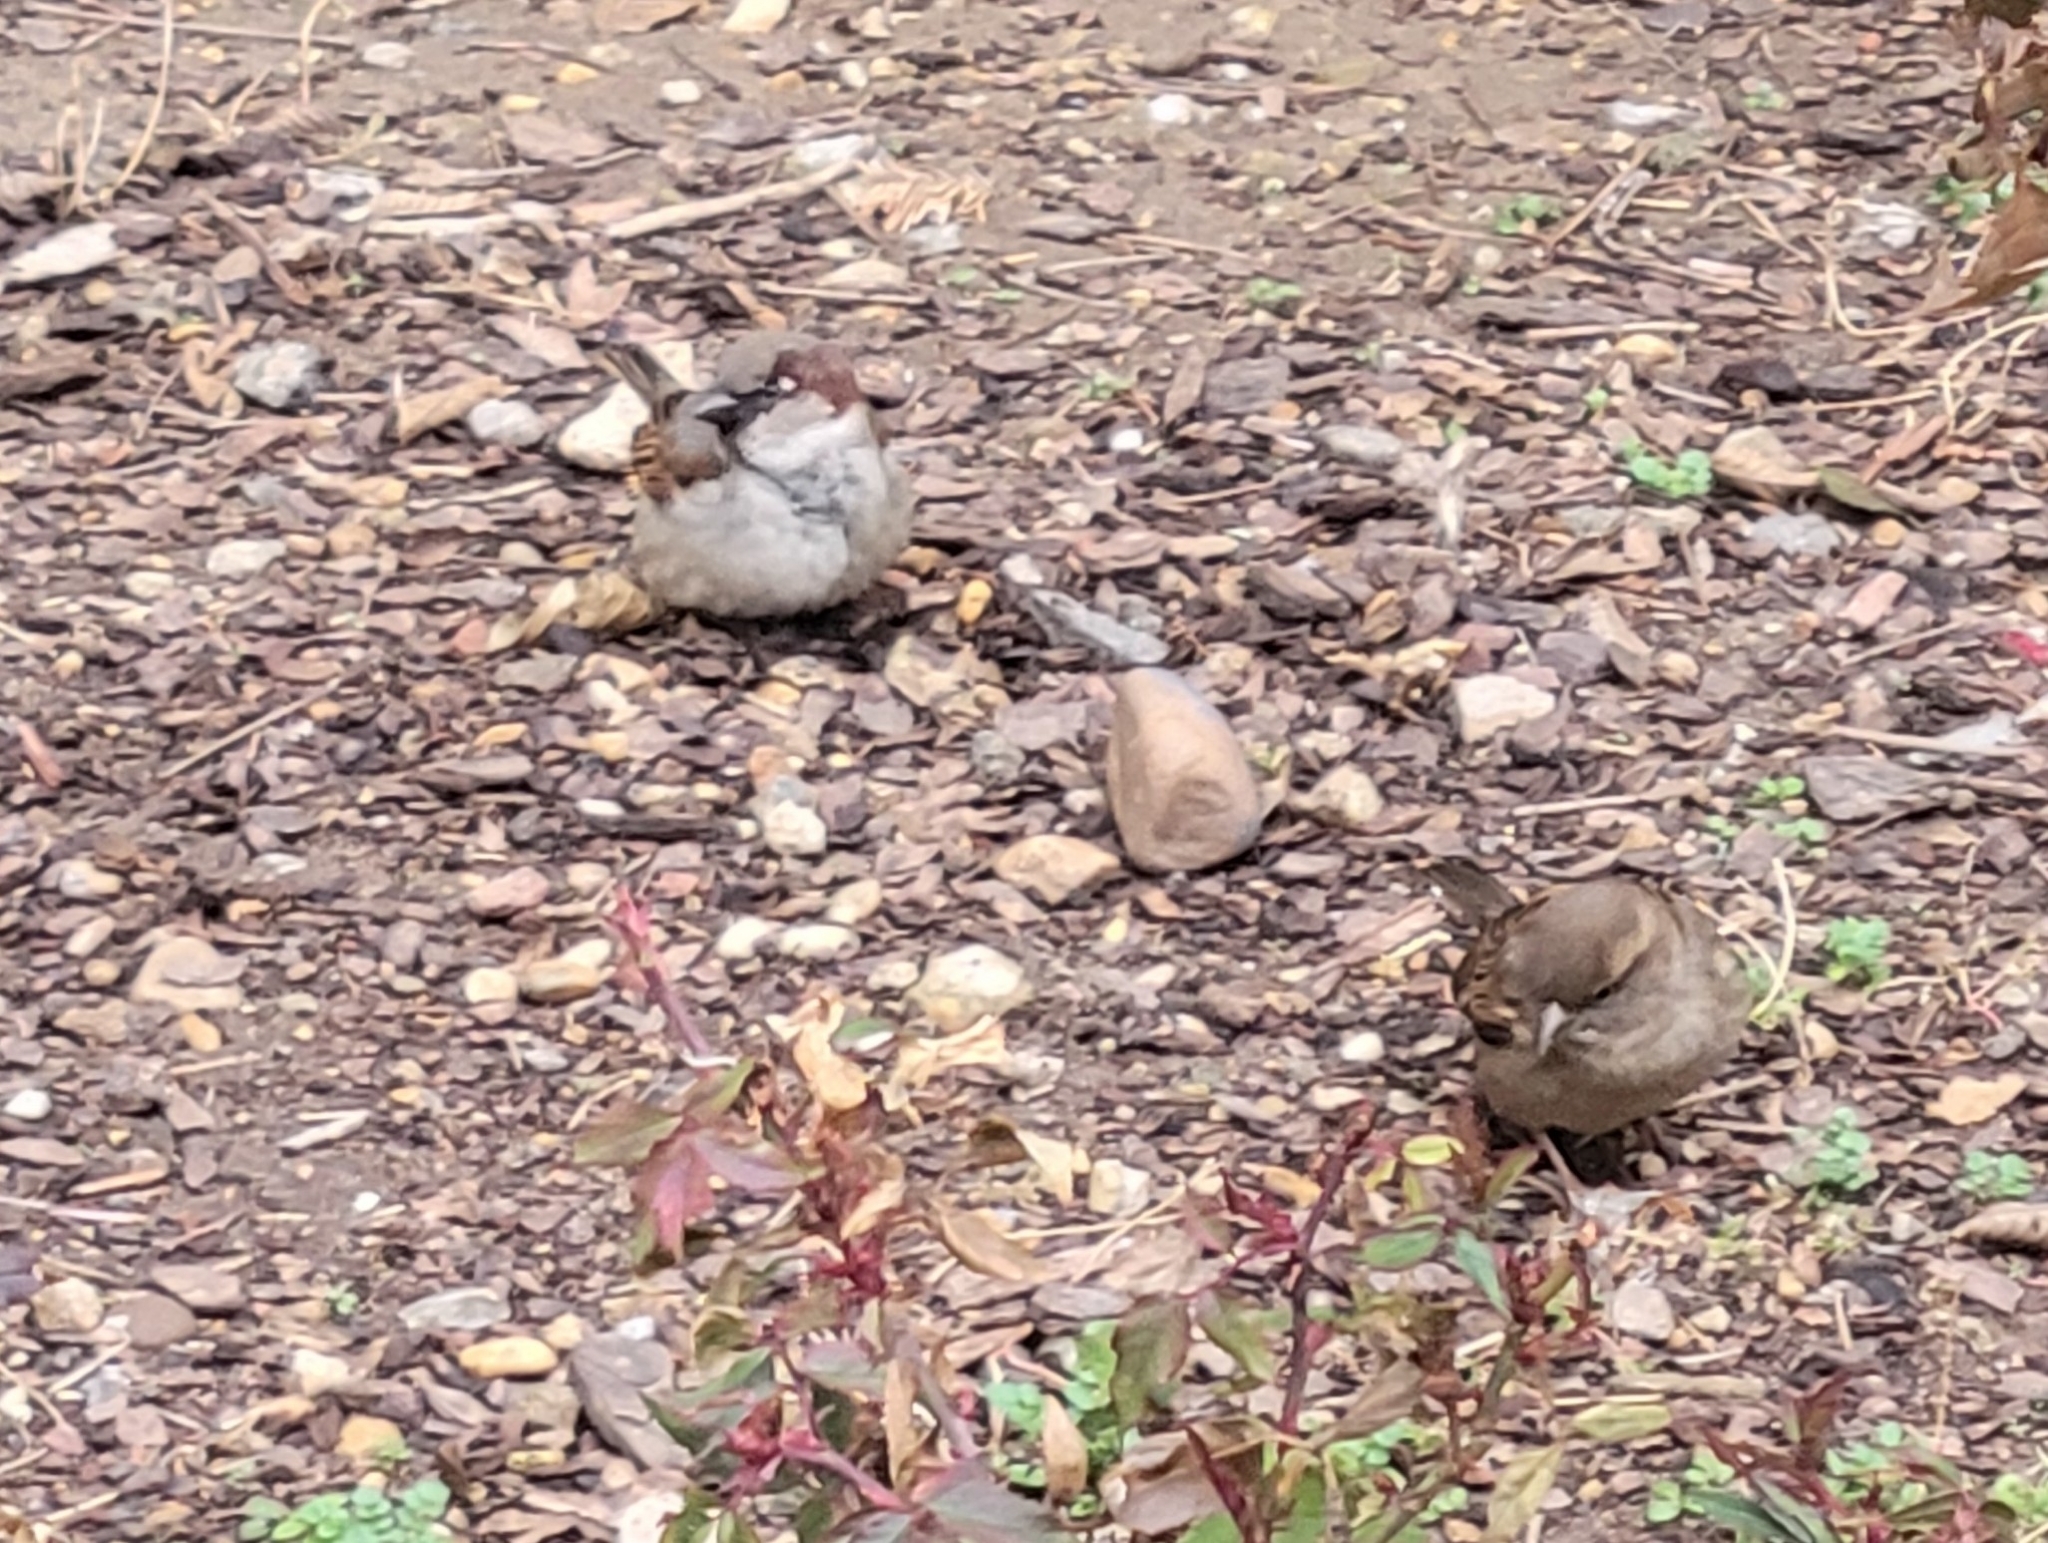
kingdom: Animalia
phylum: Chordata
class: Aves
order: Passeriformes
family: Passeridae
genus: Passer
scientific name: Passer domesticus
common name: House sparrow
